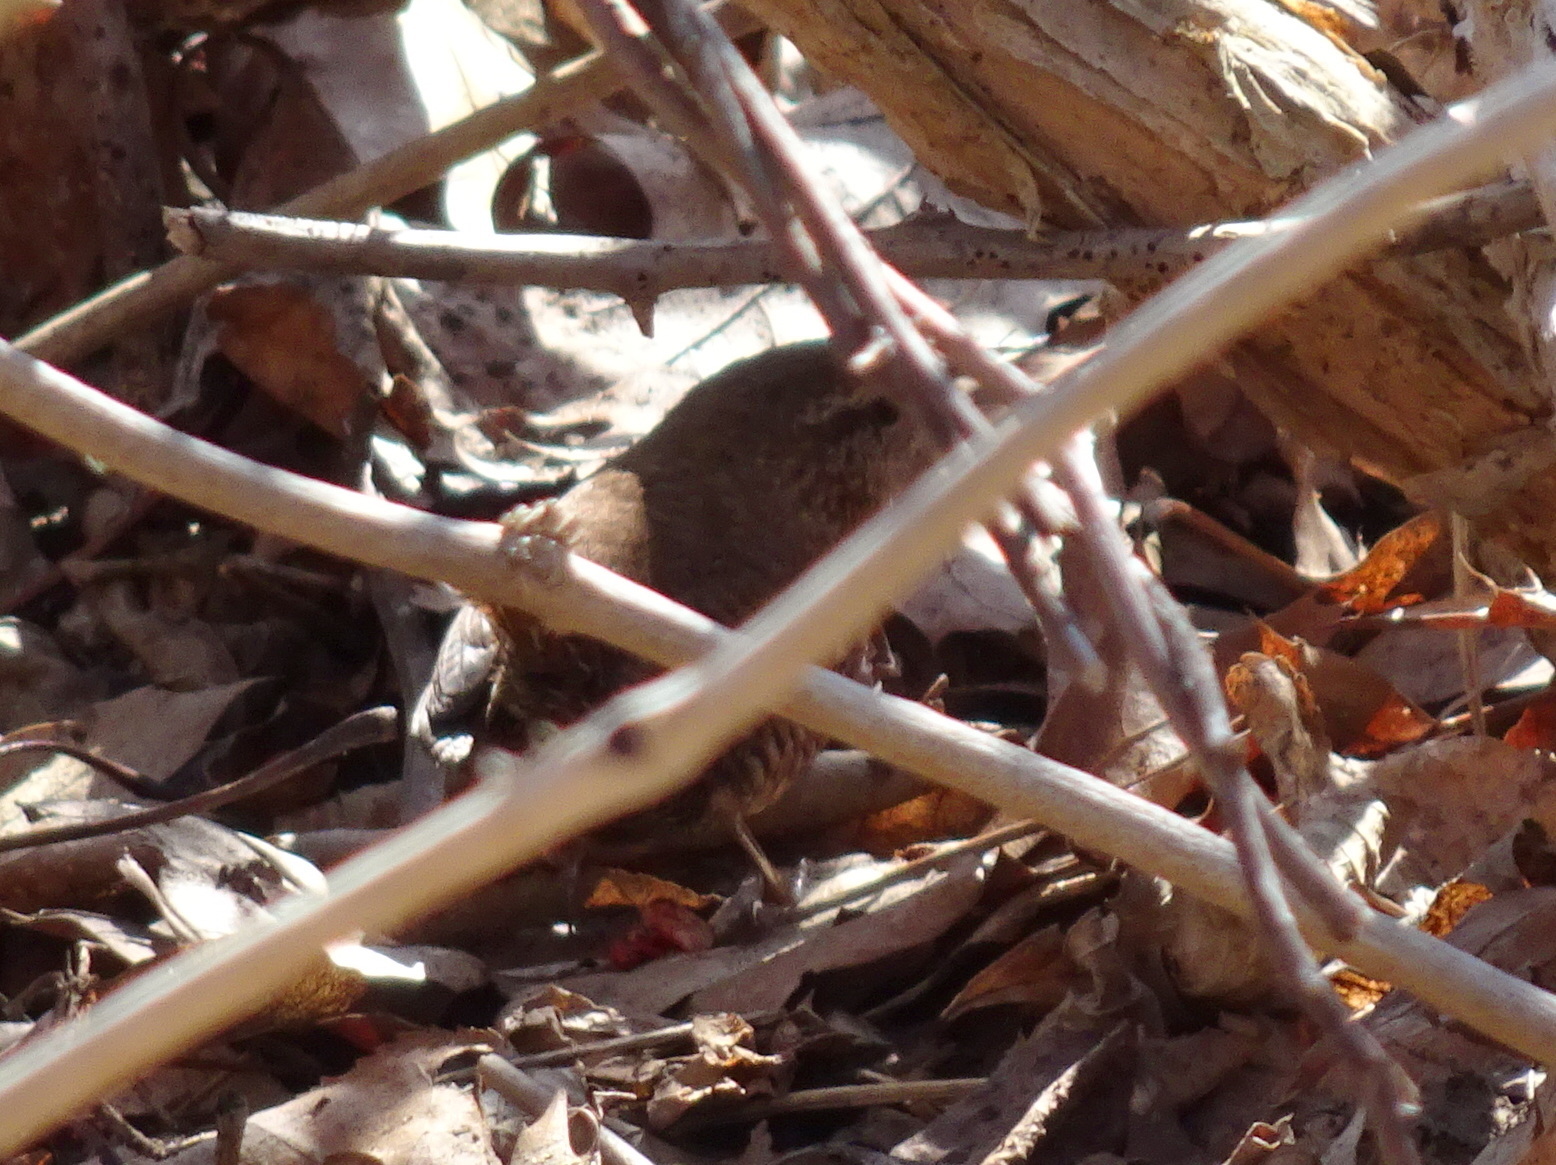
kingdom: Animalia
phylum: Chordata
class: Aves
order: Passeriformes
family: Troglodytidae
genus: Troglodytes
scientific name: Troglodytes hiemalis
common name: Winter wren
